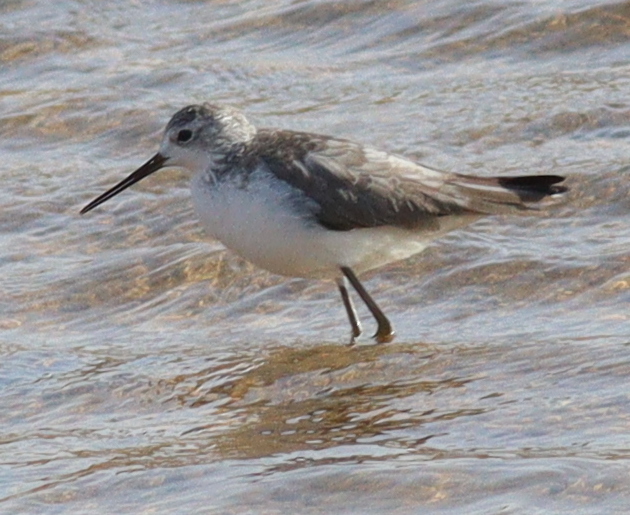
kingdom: Animalia
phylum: Chordata
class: Aves
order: Charadriiformes
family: Scolopacidae
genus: Tringa
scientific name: Tringa stagnatilis
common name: Marsh sandpiper
